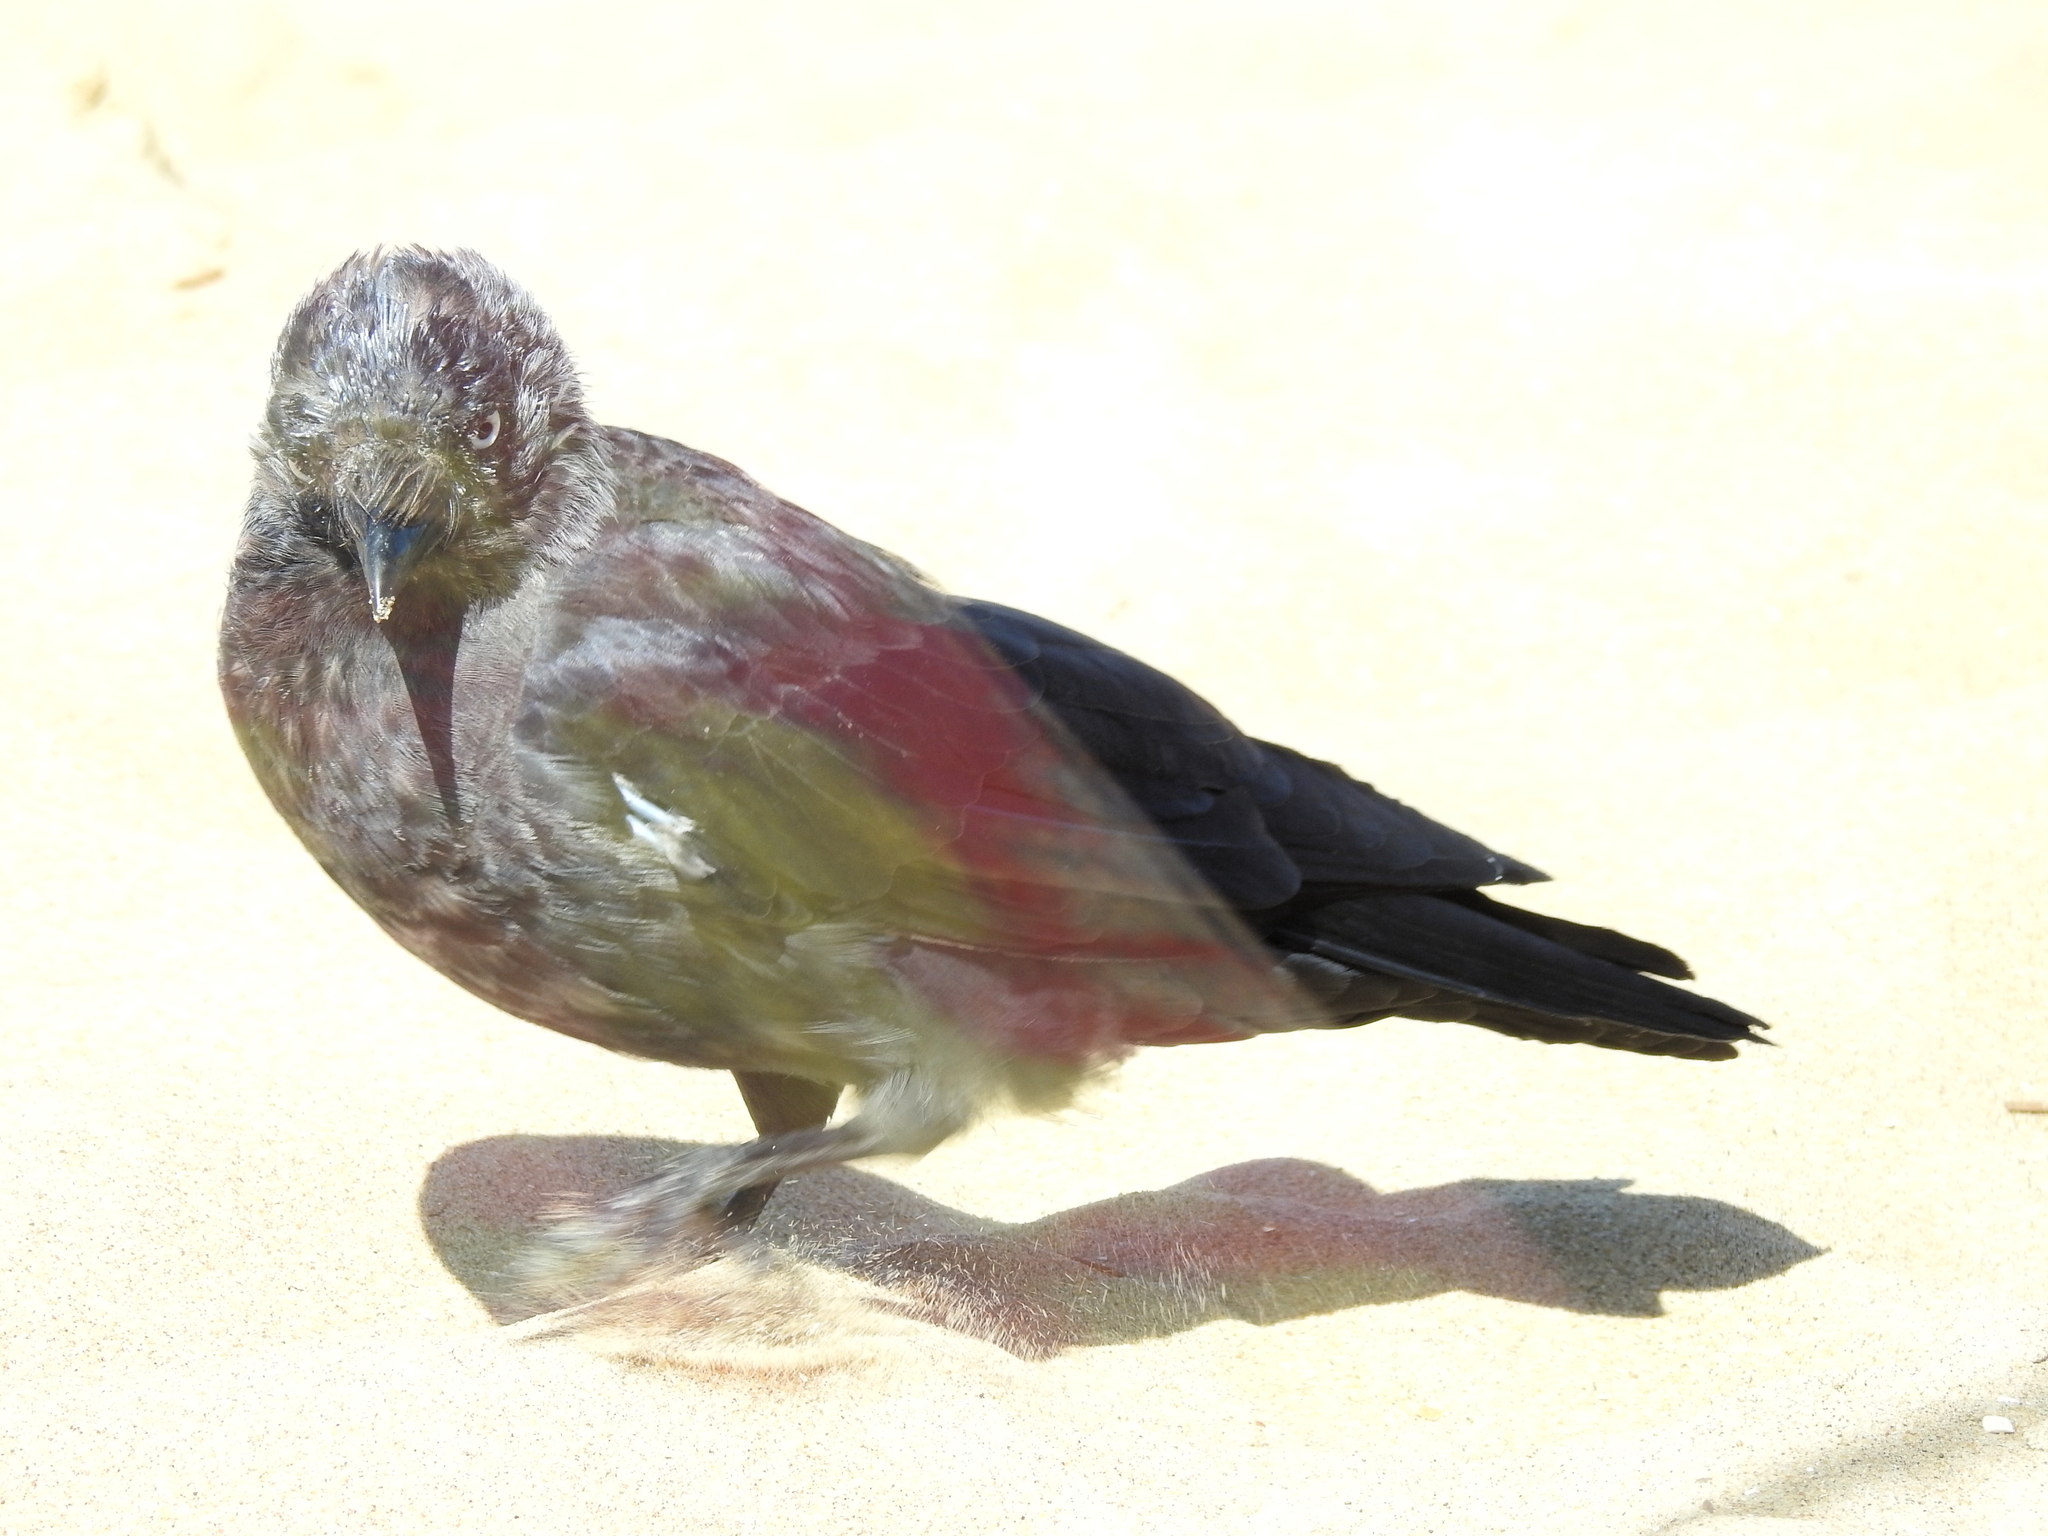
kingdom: Animalia
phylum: Chordata
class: Aves
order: Passeriformes
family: Corvidae
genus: Coloeus
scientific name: Coloeus monedula
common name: Western jackdaw
